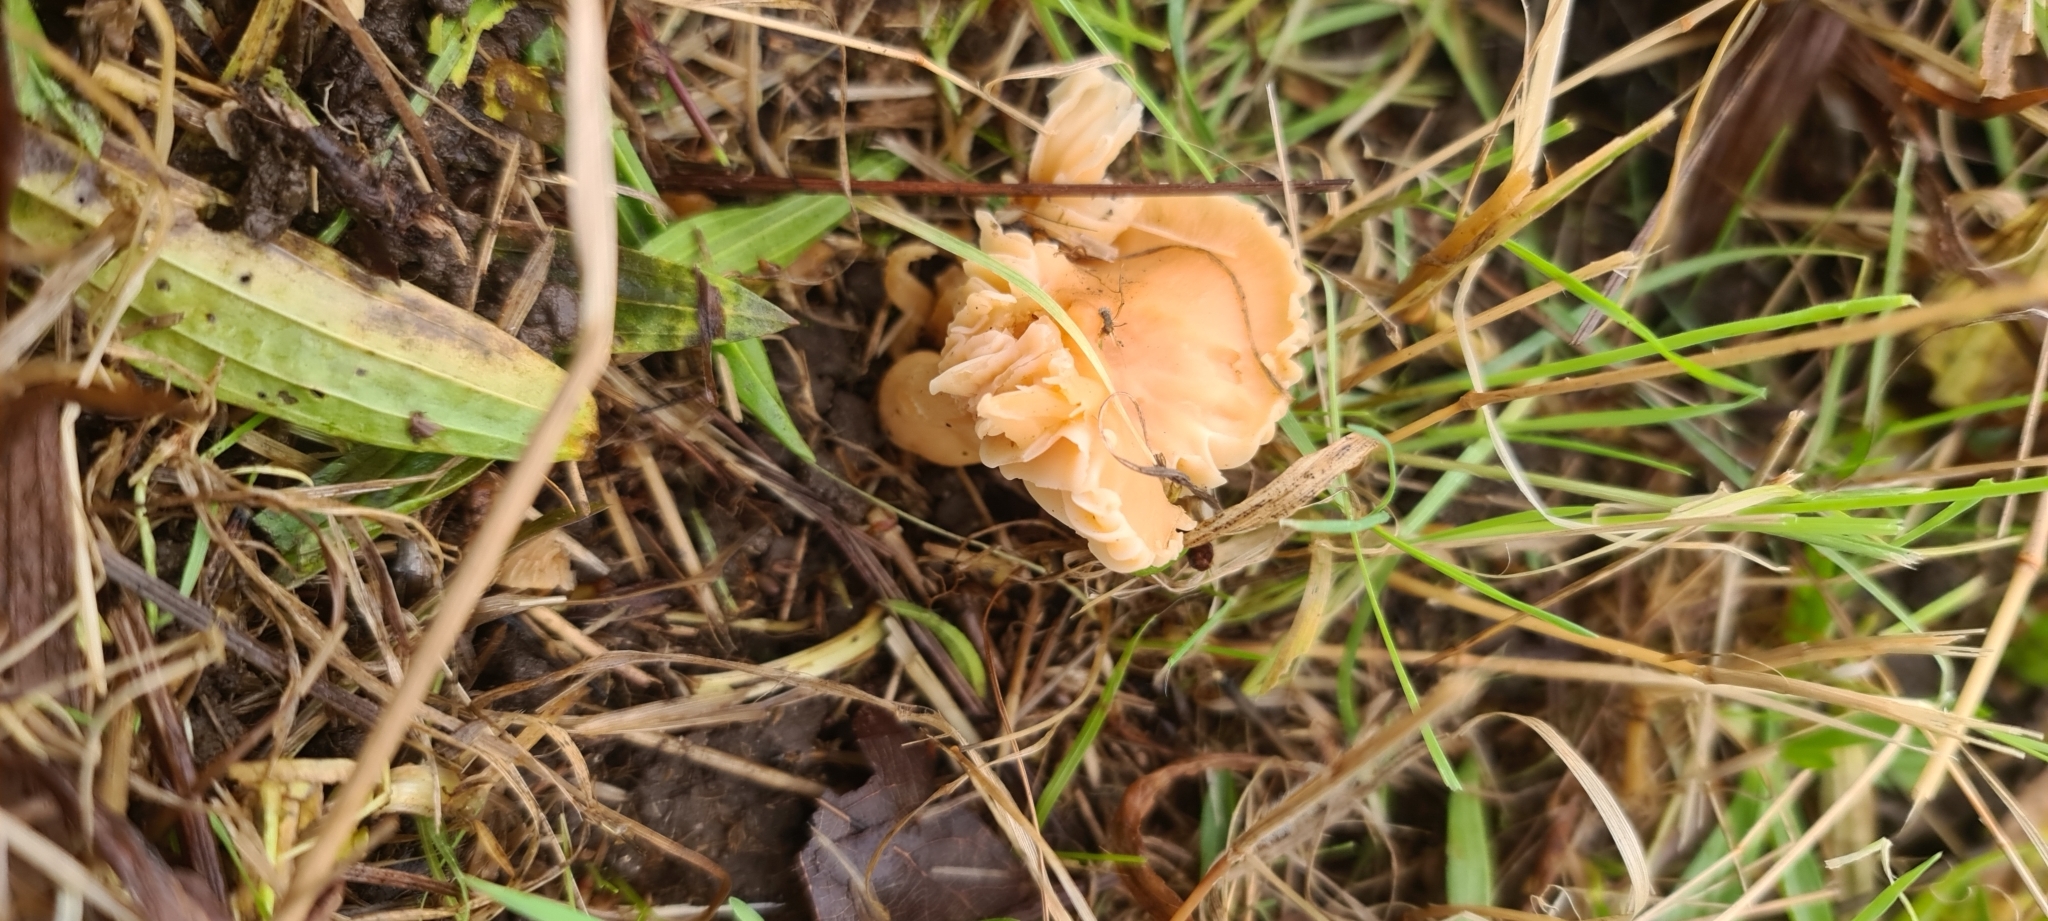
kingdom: Fungi
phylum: Basidiomycota
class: Agaricomycetes
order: Agaricales
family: Hygrophoraceae
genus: Cuphophyllus
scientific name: Cuphophyllus pratensis
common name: Meadow waxcap
